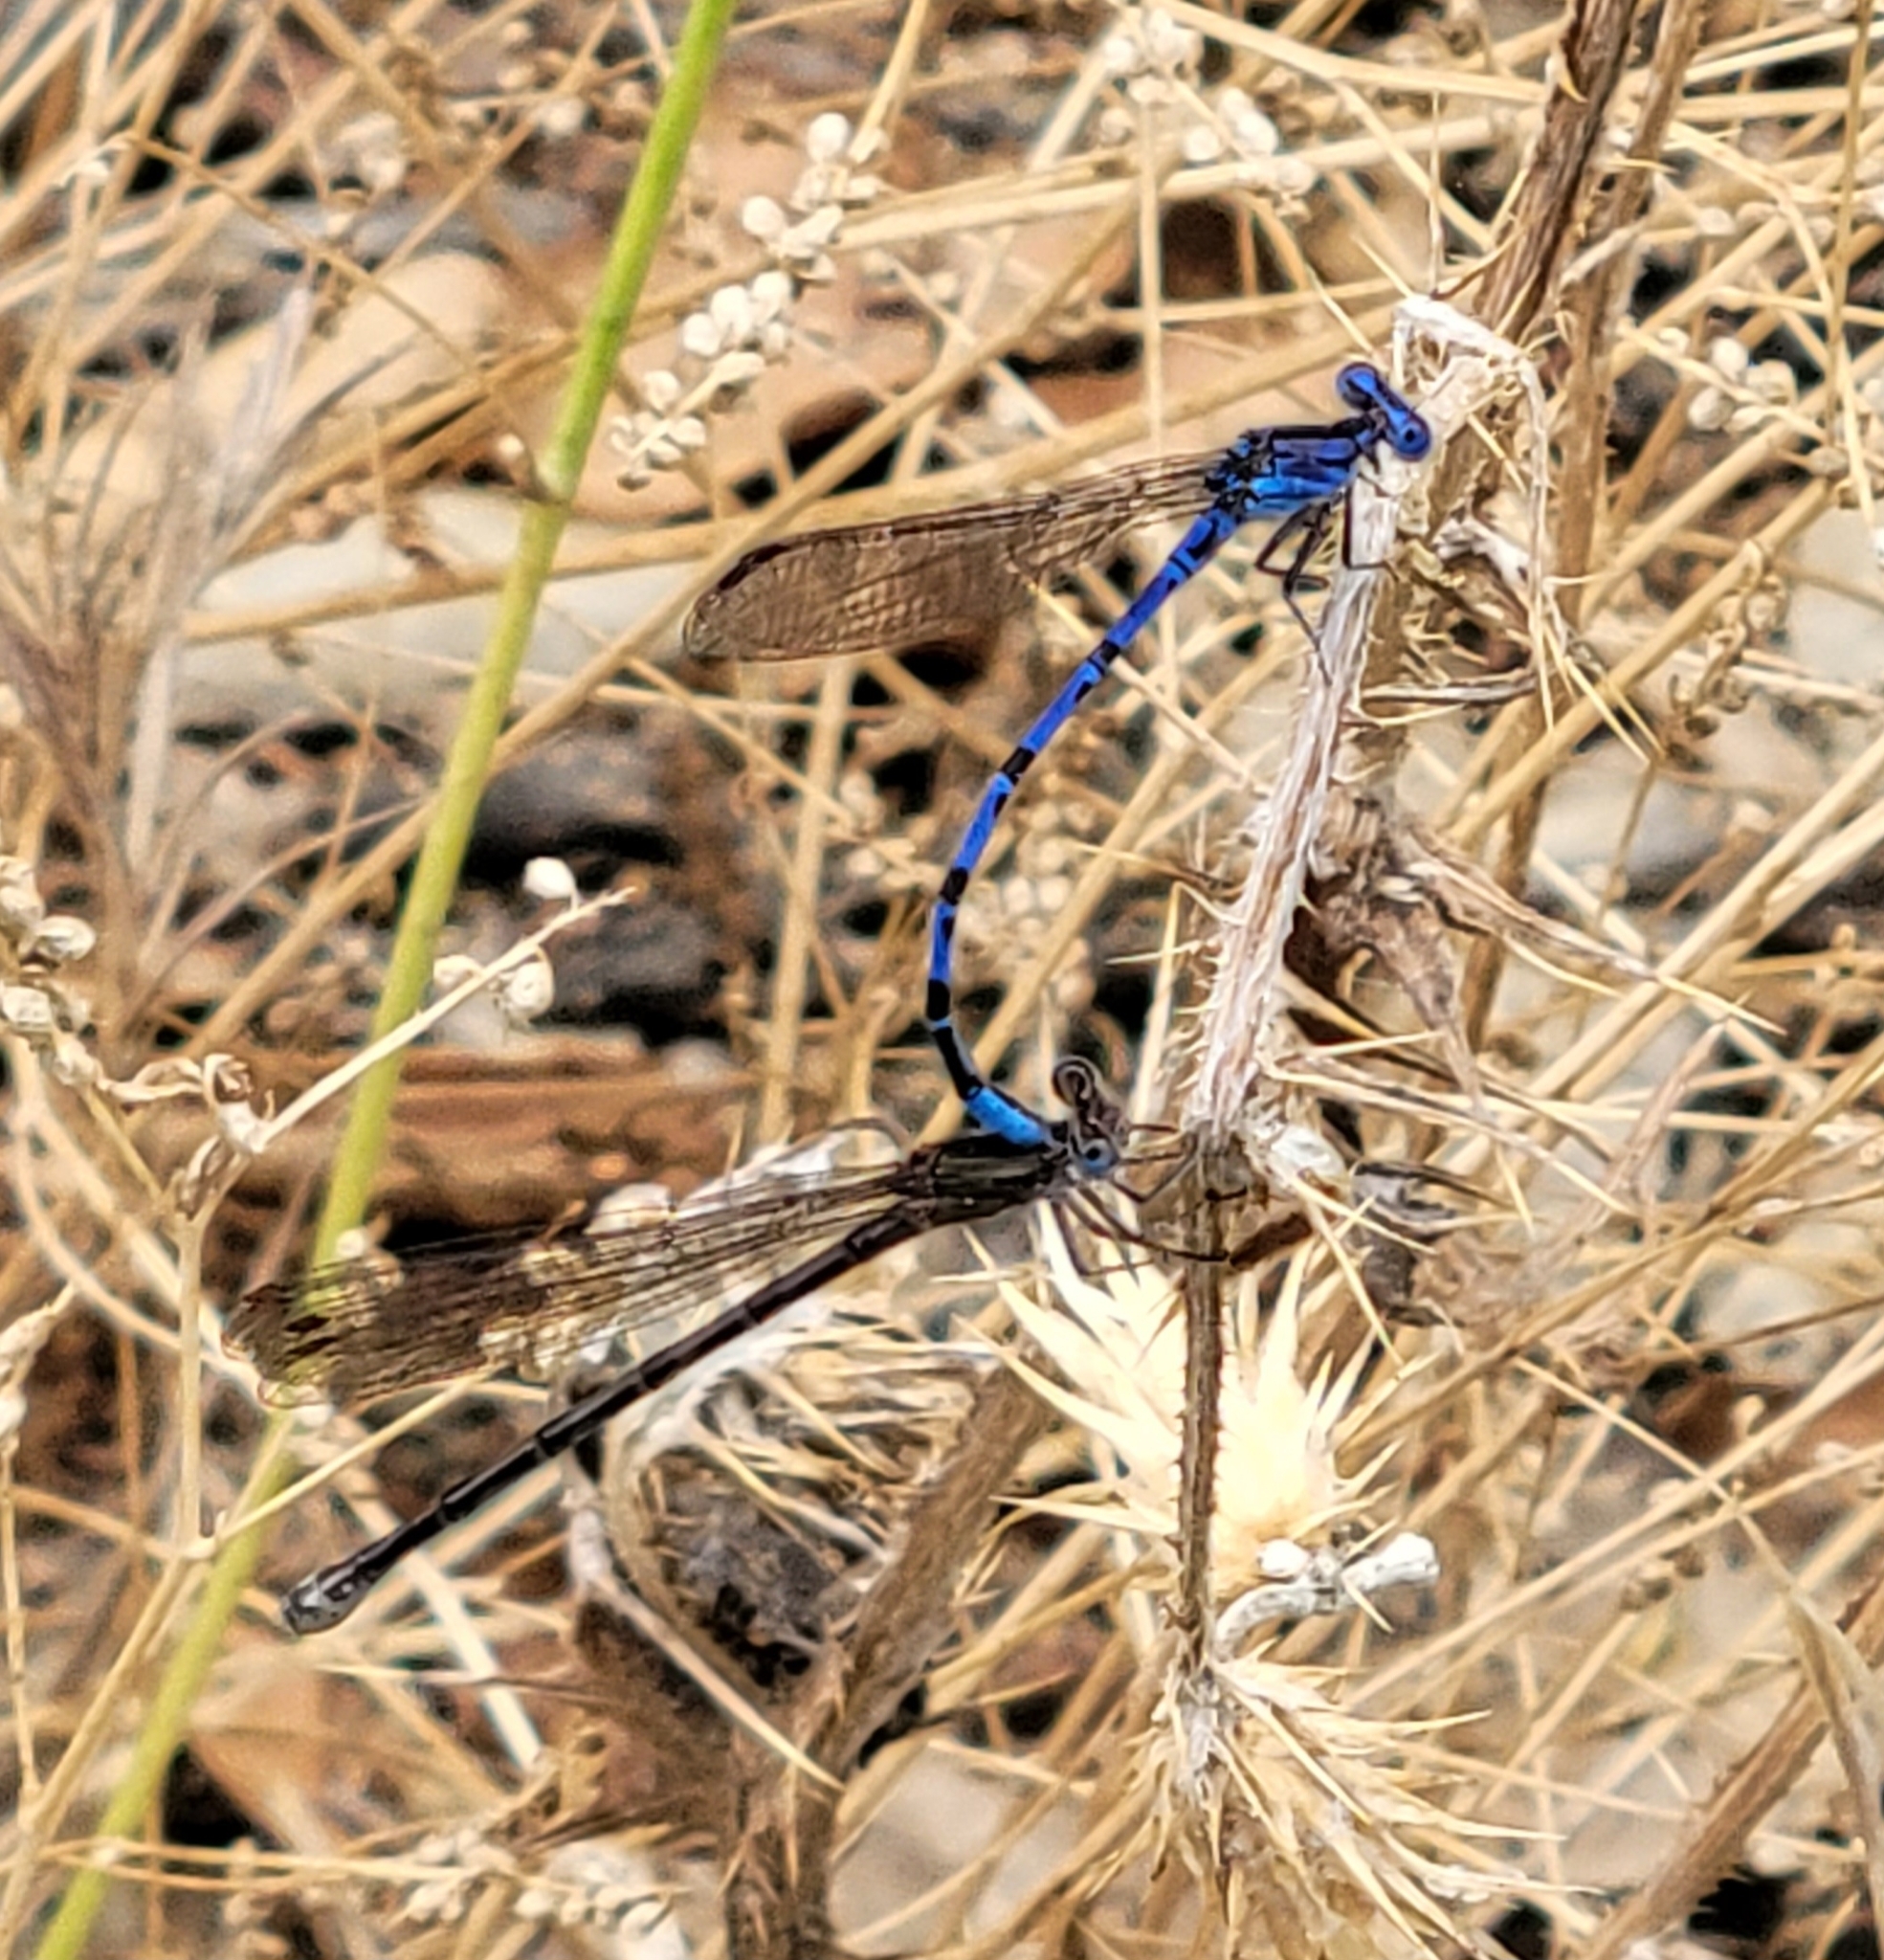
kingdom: Animalia
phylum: Arthropoda
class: Insecta
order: Odonata
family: Coenagrionidae
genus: Argia
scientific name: Argia vivida
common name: Vivid dancer
